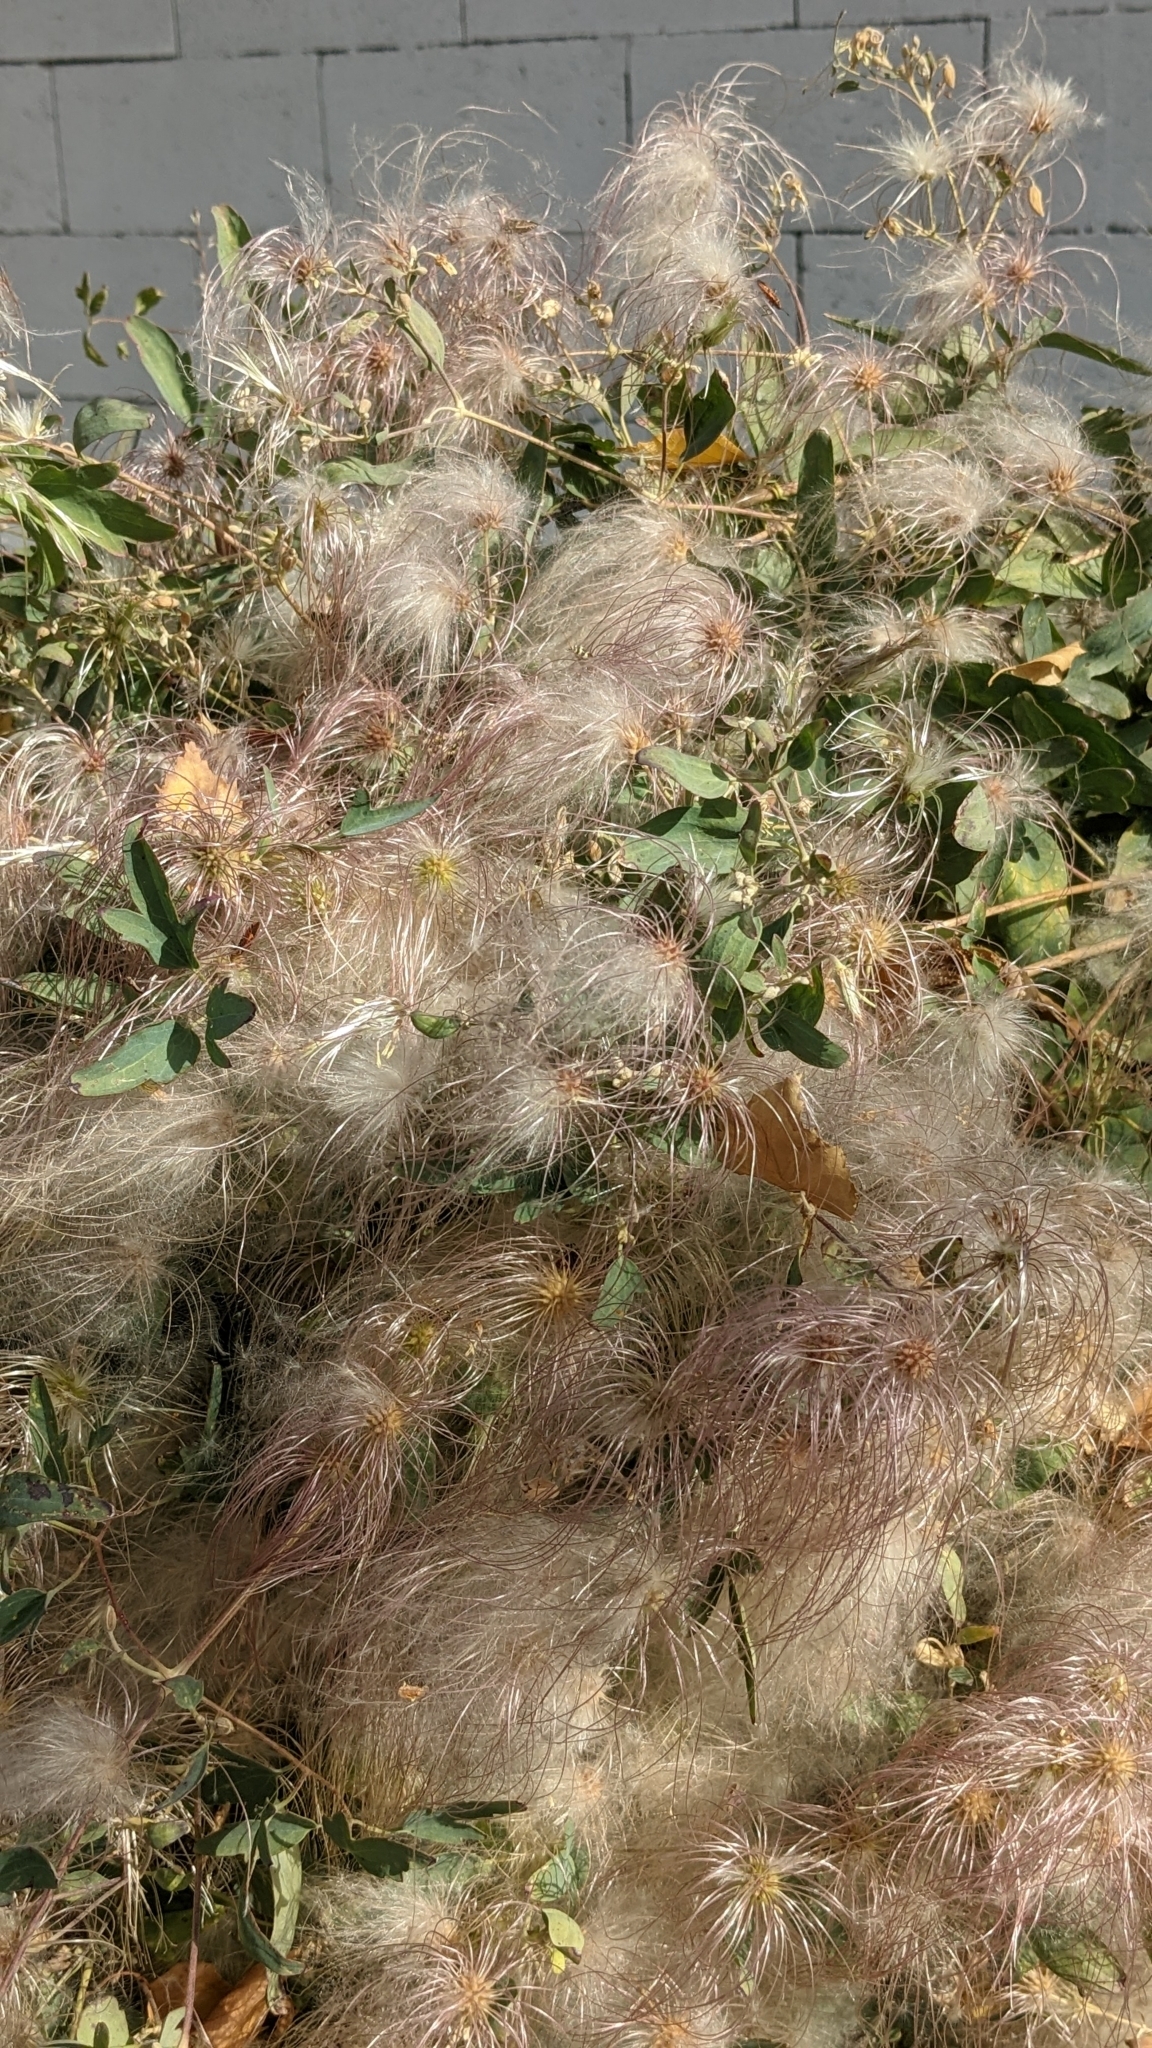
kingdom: Plantae
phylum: Tracheophyta
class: Magnoliopsida
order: Ranunculales
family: Ranunculaceae
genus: Clematis
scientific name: Clematis orientalis
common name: Oriental virgin's-bower
